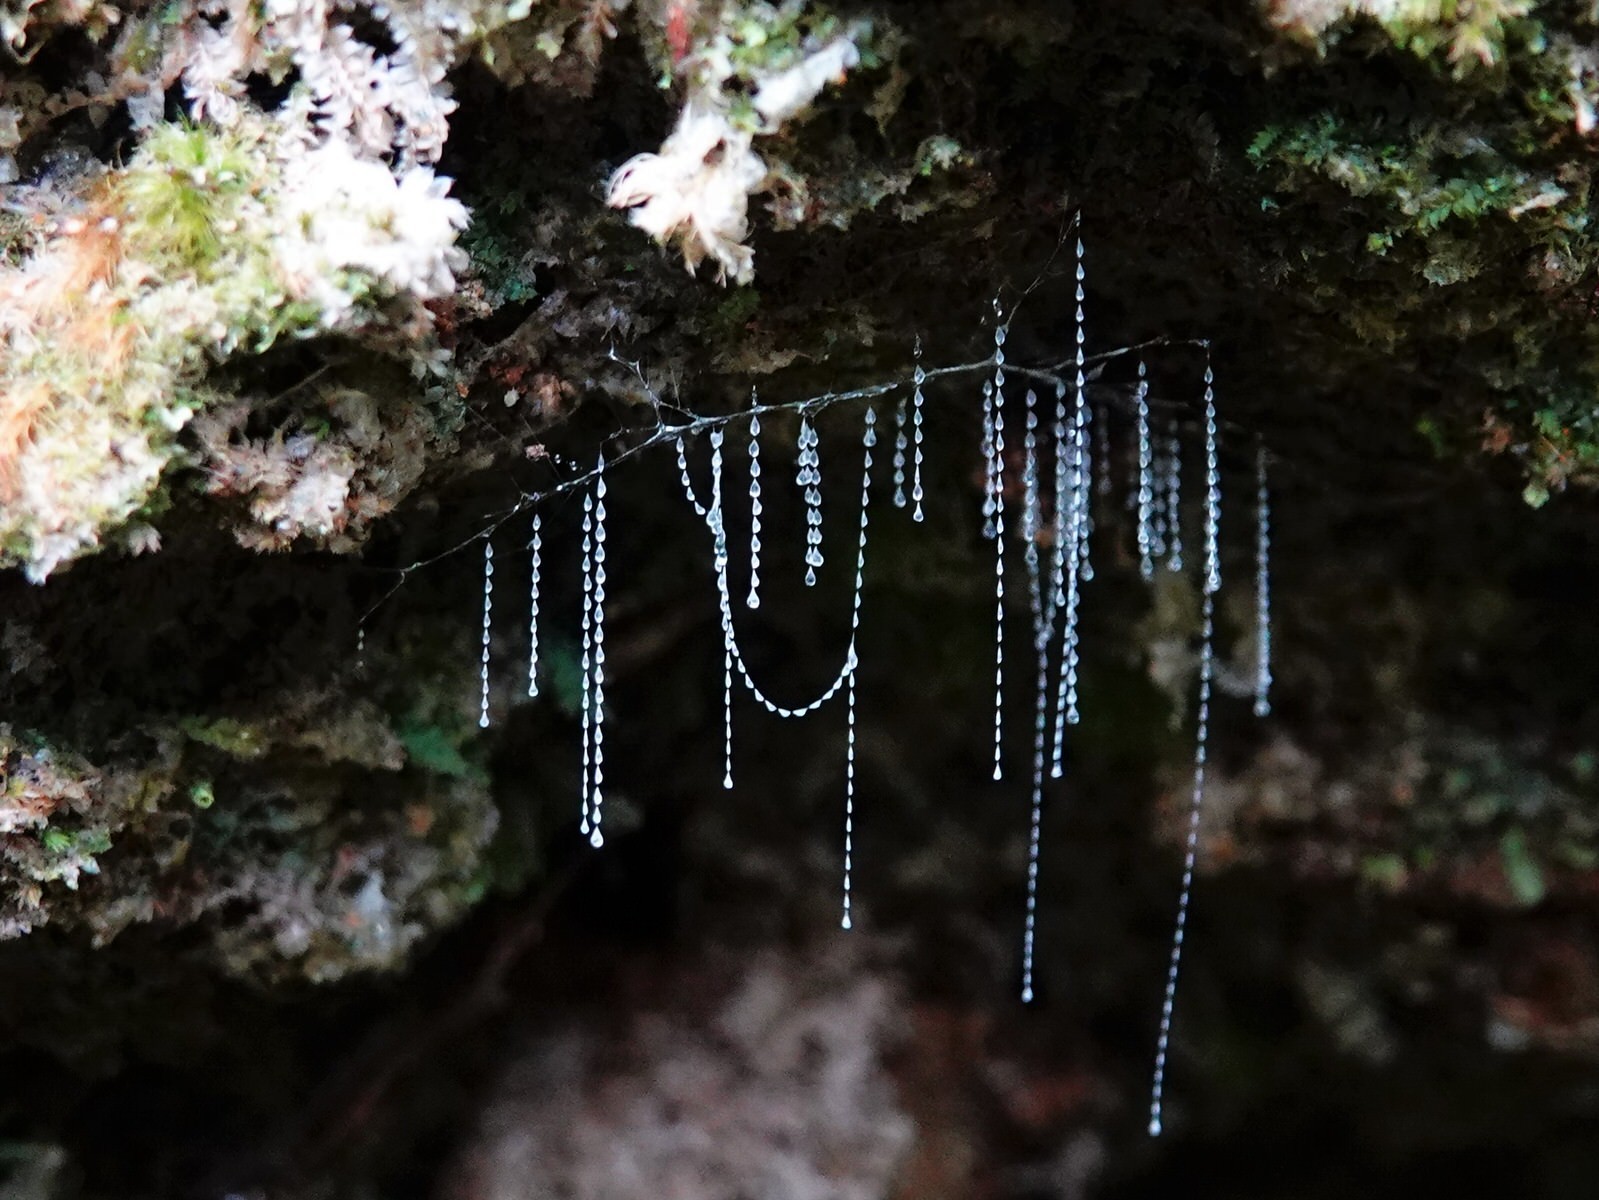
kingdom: Animalia
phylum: Arthropoda
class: Insecta
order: Diptera
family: Keroplatidae
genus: Arachnocampa
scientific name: Arachnocampa luminosa
